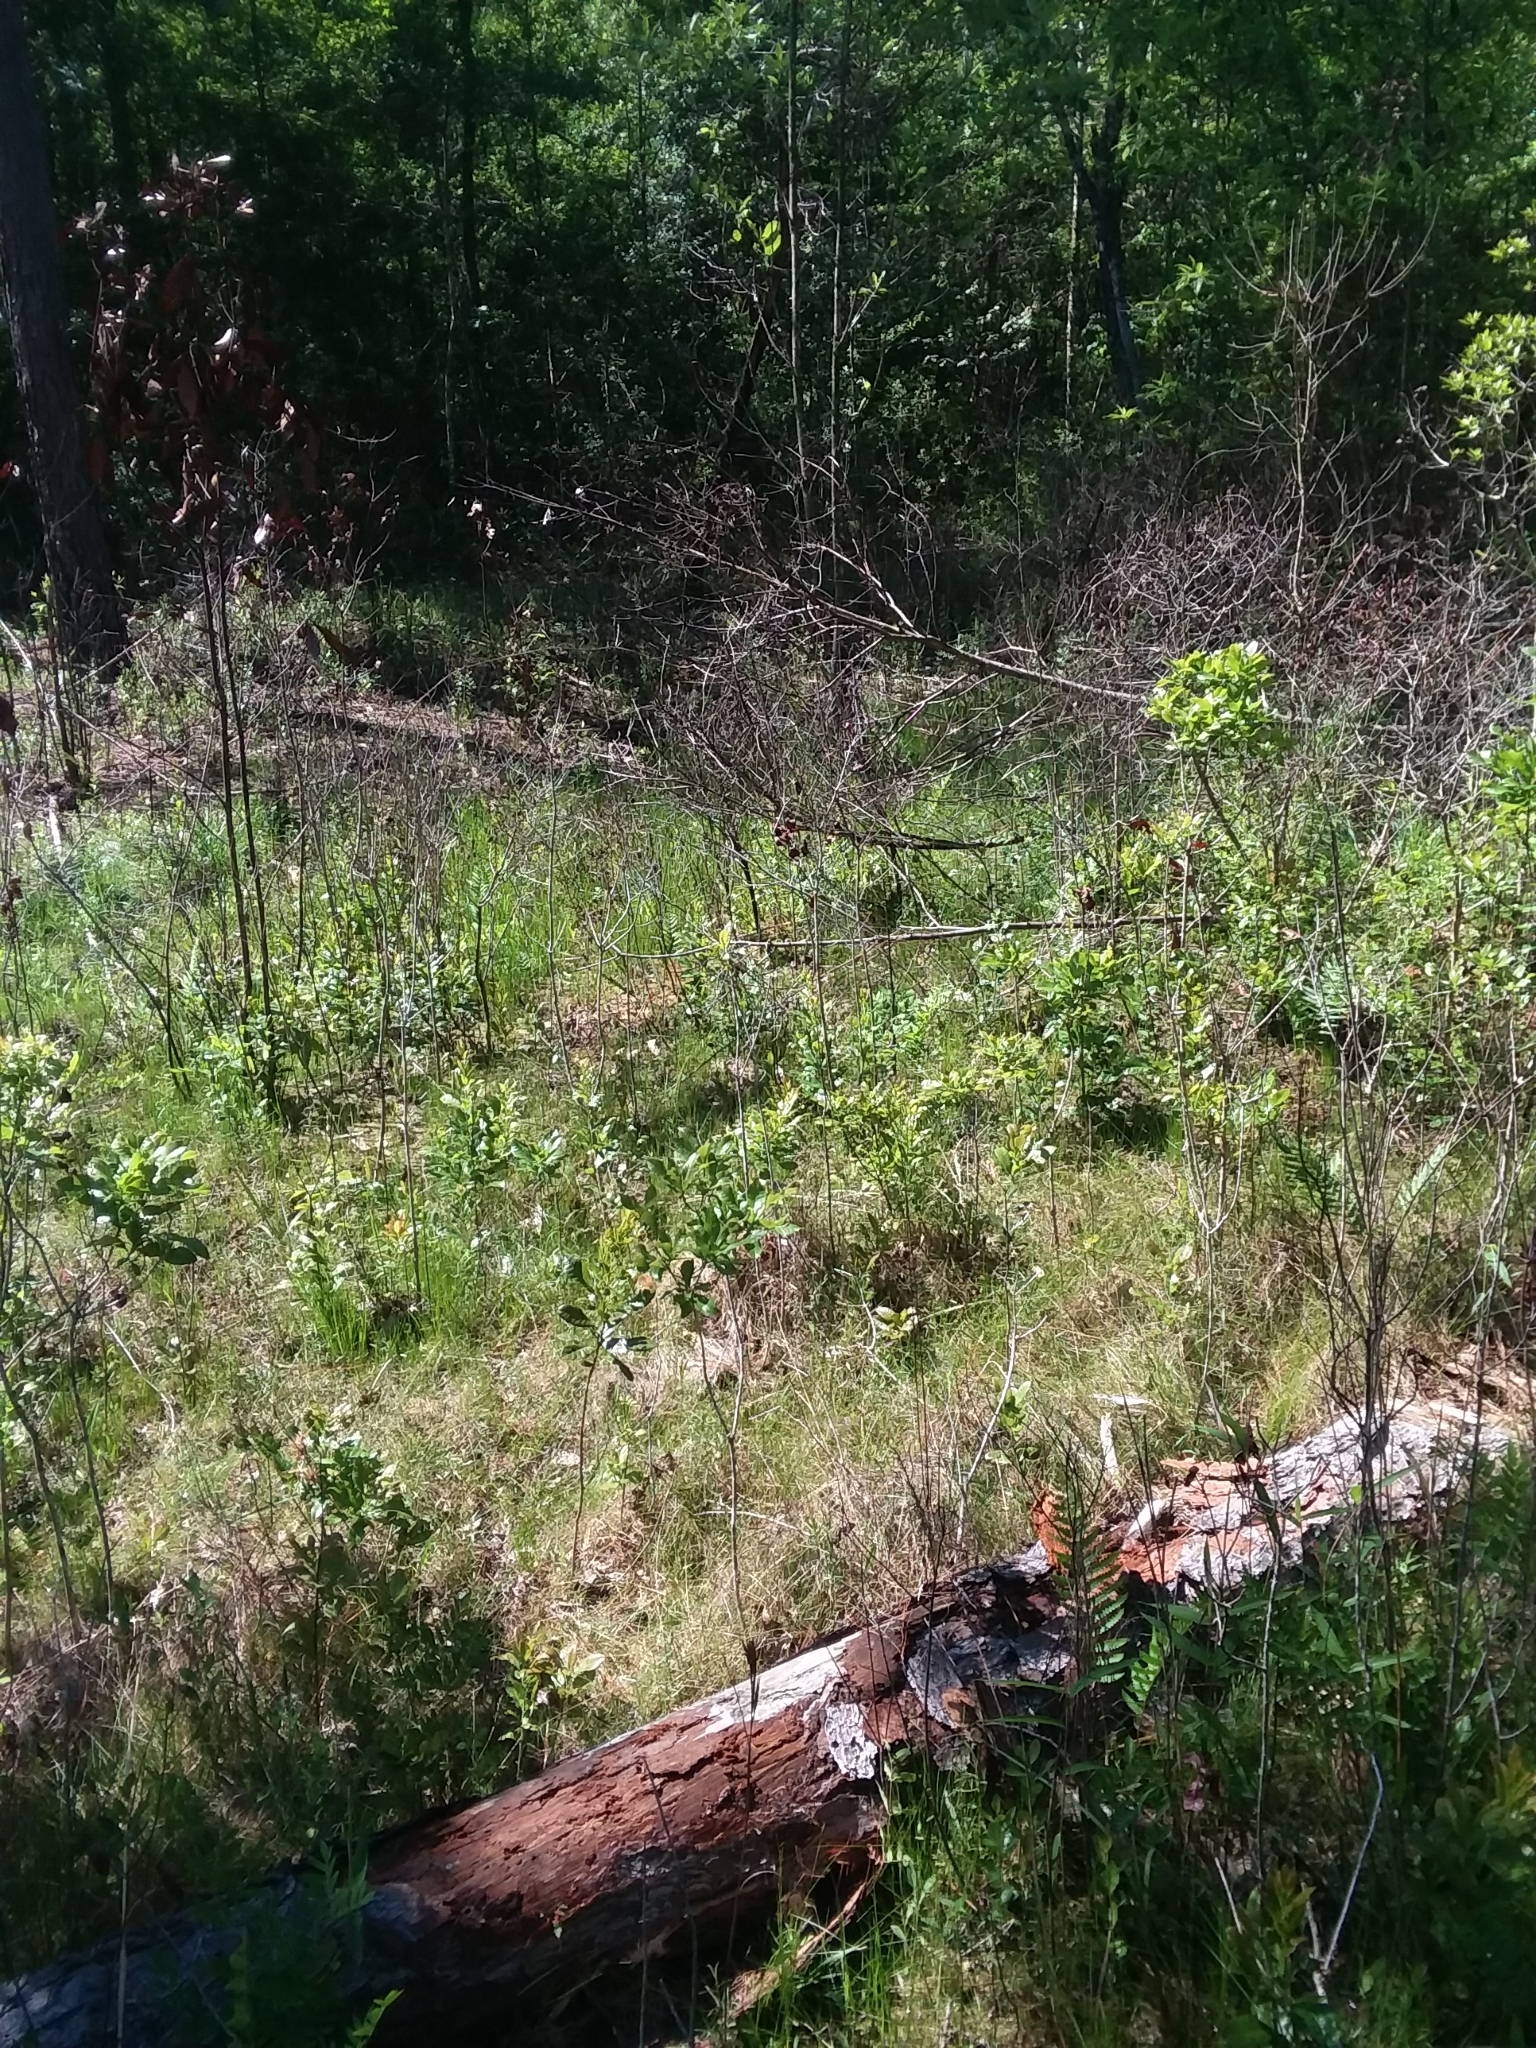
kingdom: Plantae
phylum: Tracheophyta
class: Liliopsida
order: Asparagales
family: Orchidaceae
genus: Pogonia
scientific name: Pogonia ophioglossoides
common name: Rose pogonia
